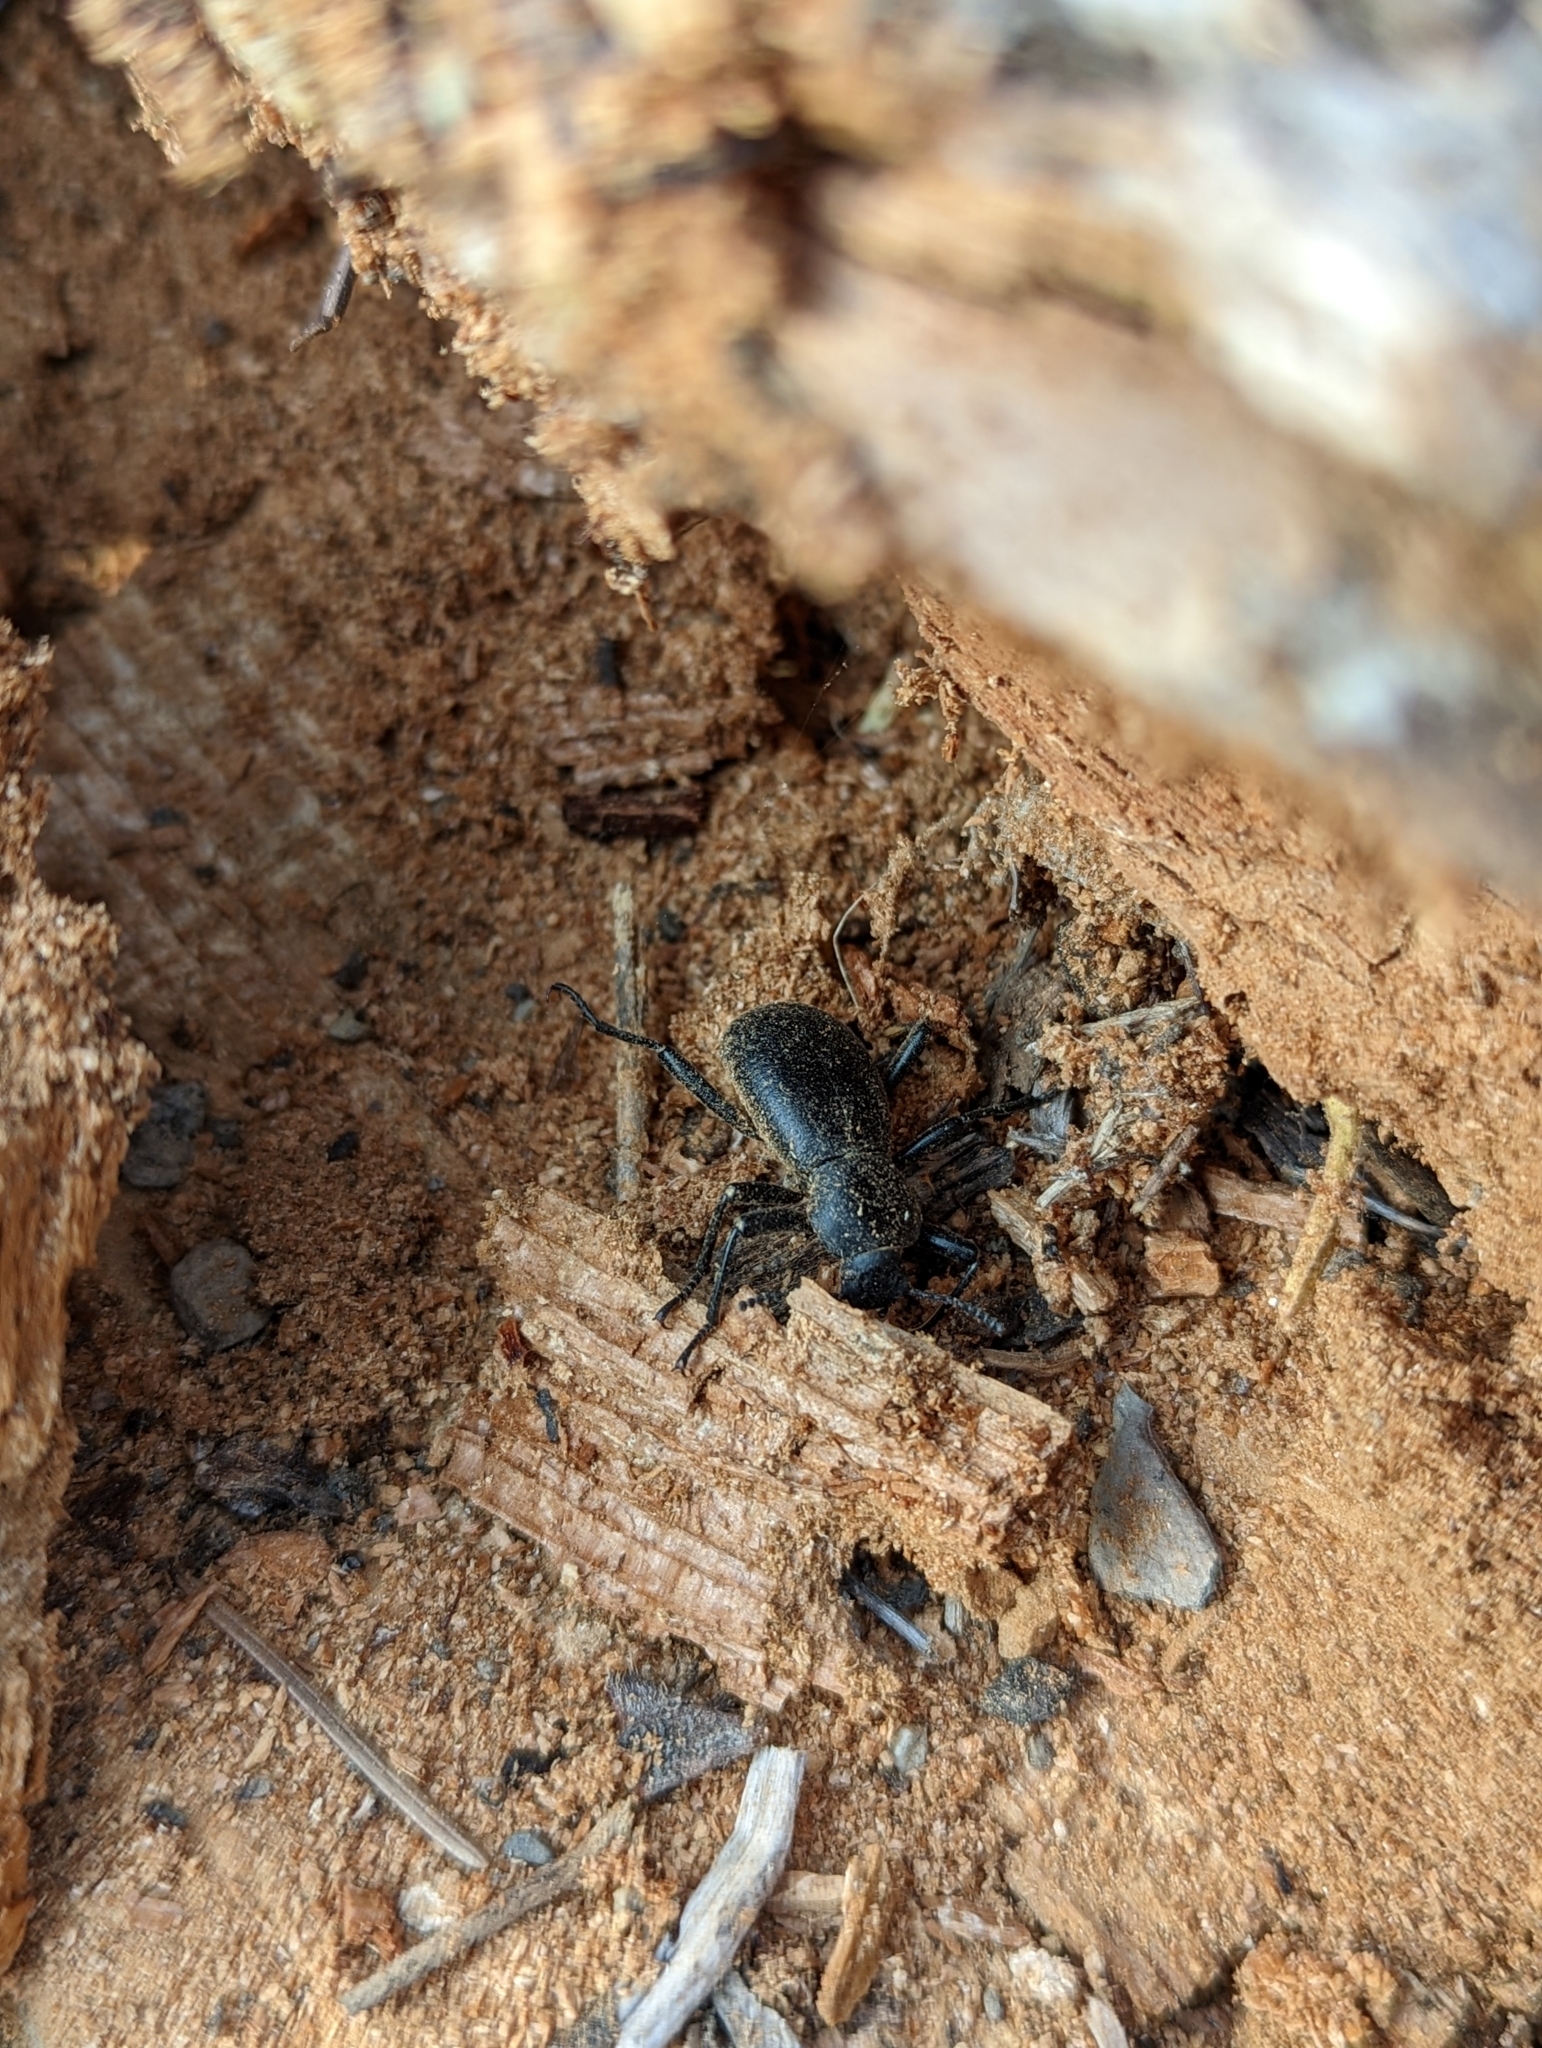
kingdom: Animalia
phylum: Arthropoda
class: Insecta
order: Coleoptera
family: Tenebrionidae
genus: Coelocnemis
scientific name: Coelocnemis dilaticollis
